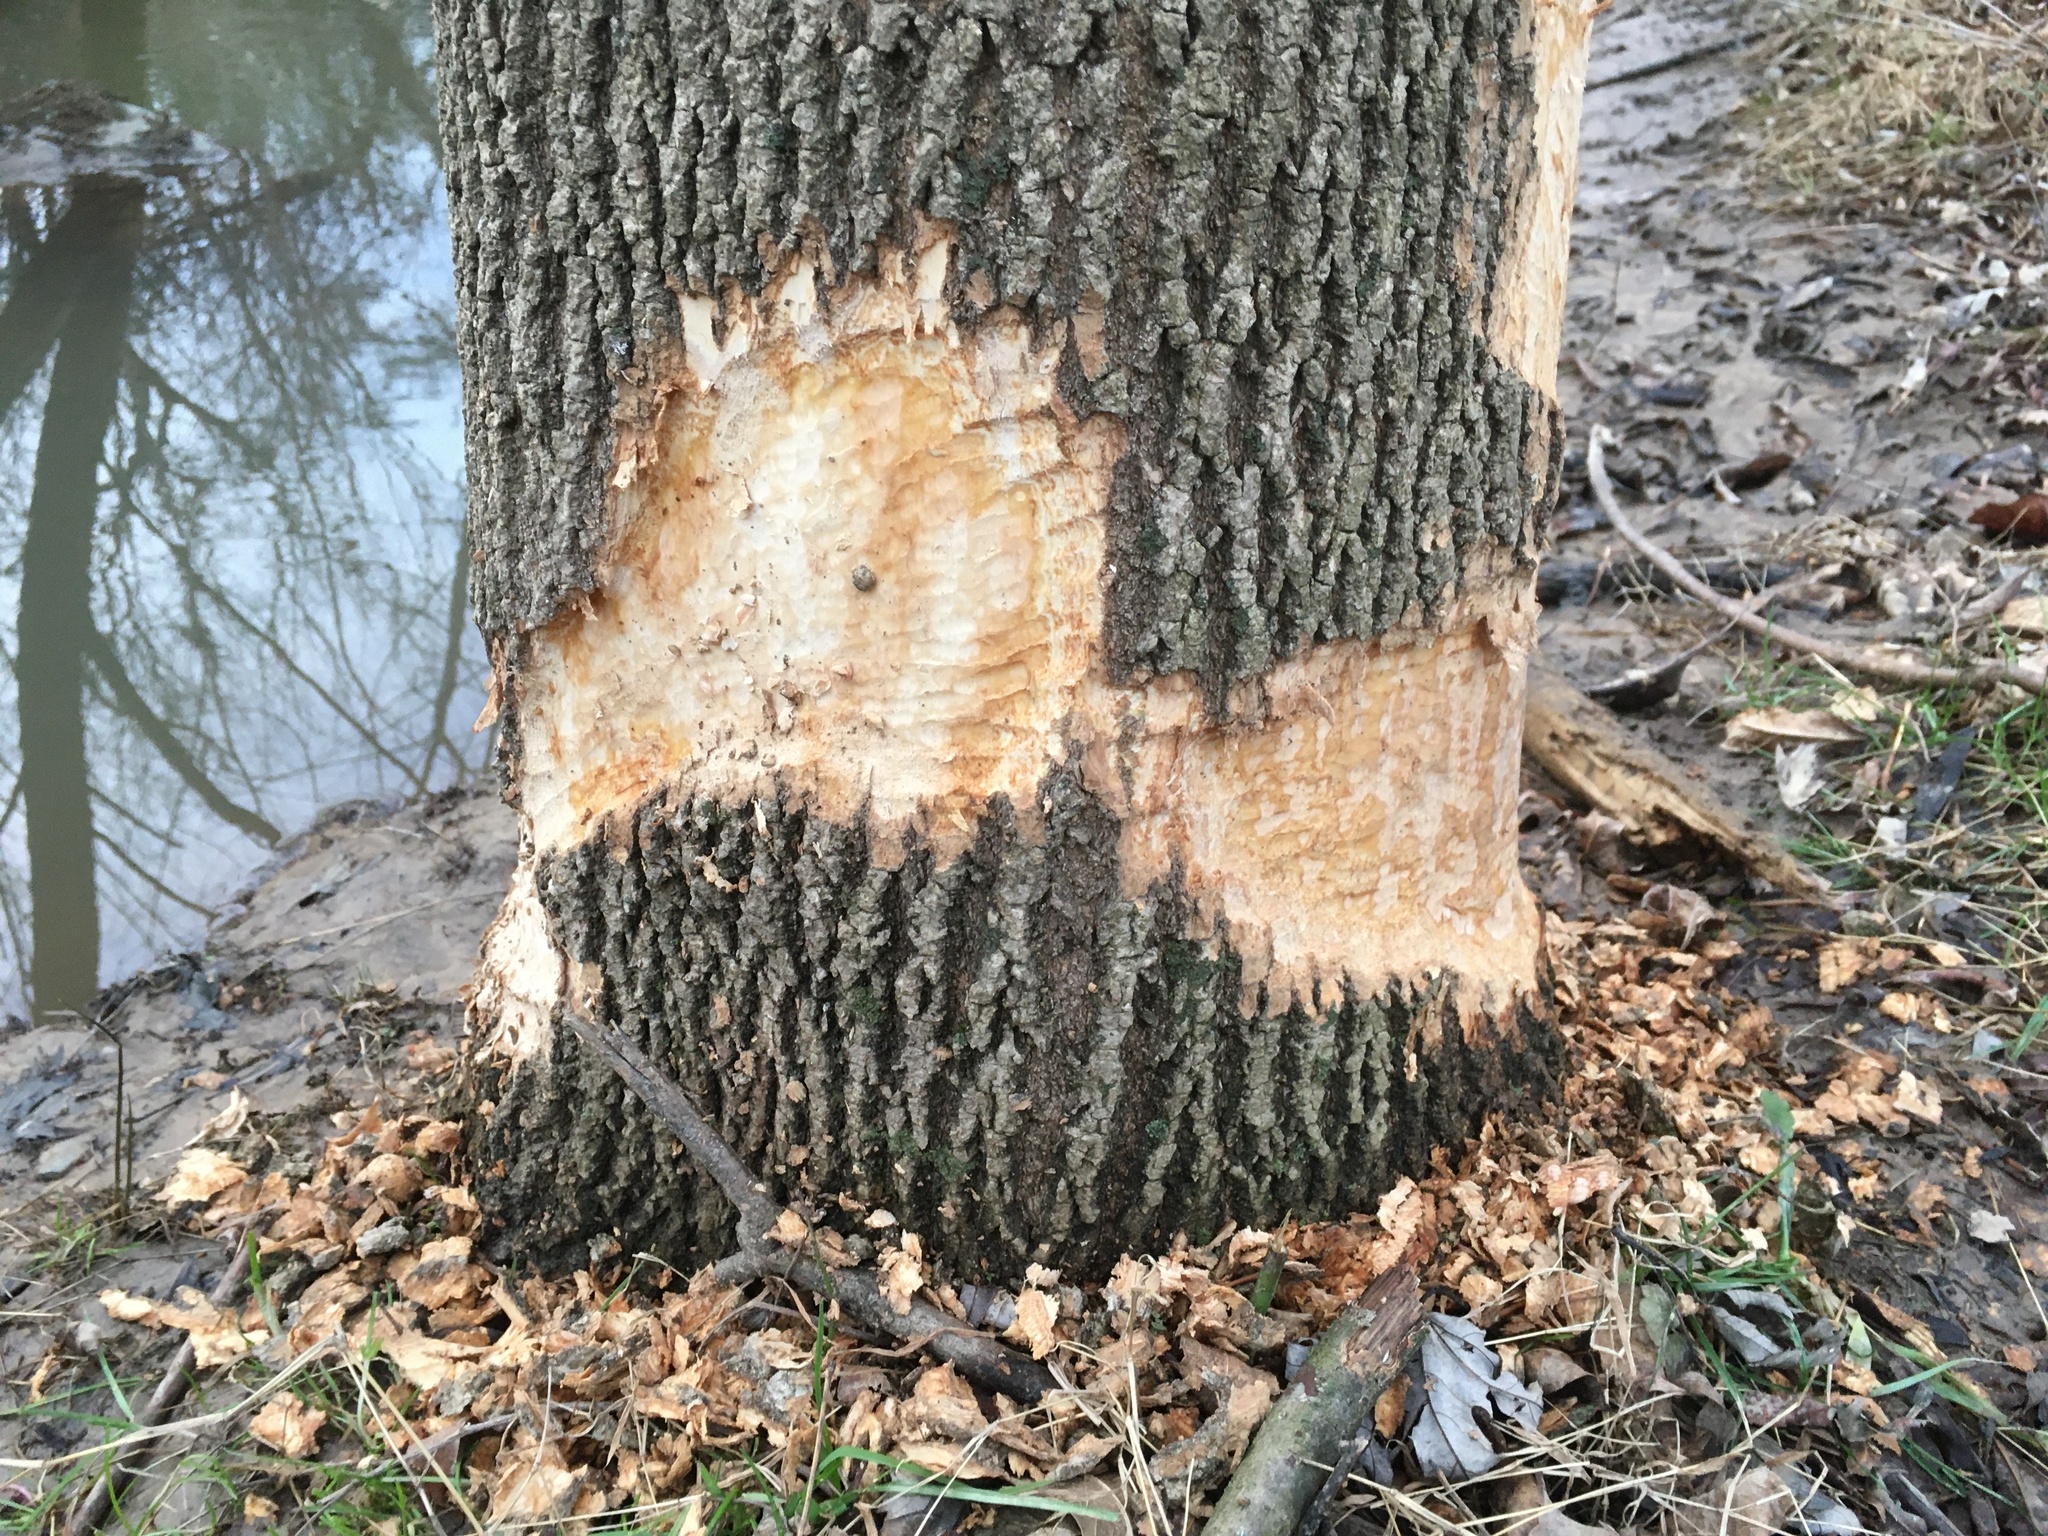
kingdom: Animalia
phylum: Chordata
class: Mammalia
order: Rodentia
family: Castoridae
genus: Castor
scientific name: Castor canadensis
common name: American beaver
